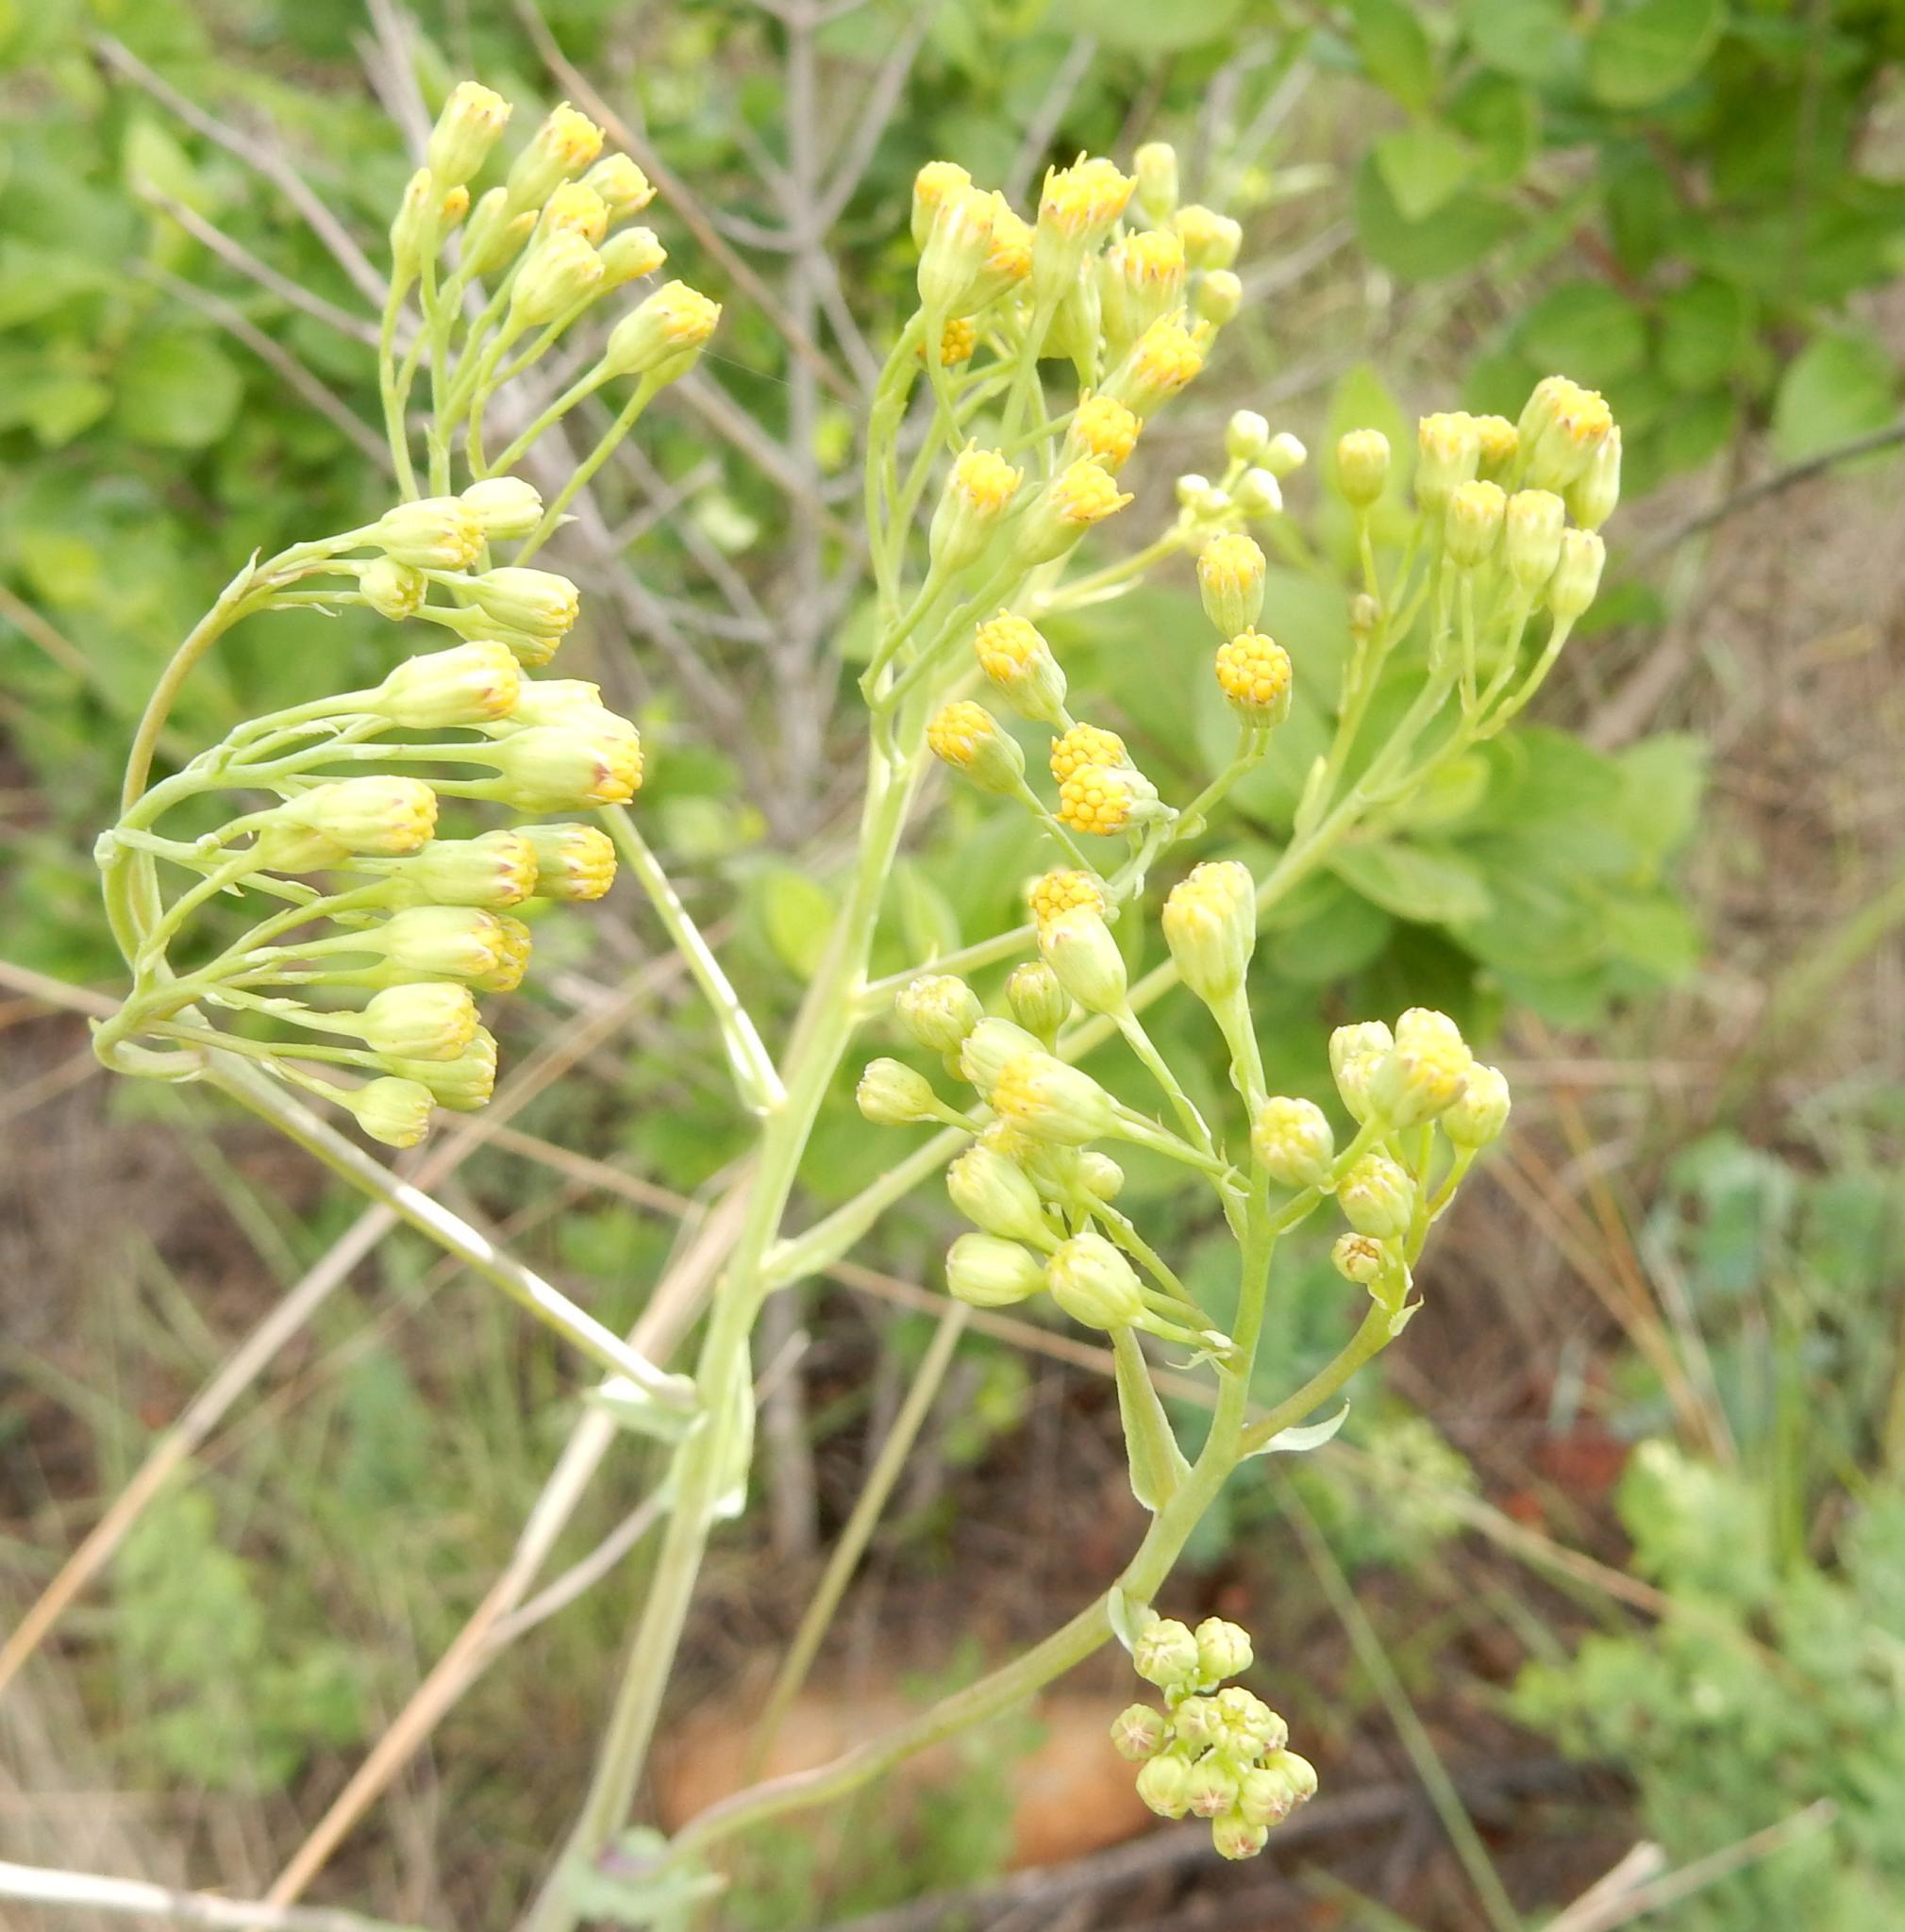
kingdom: Plantae
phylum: Tracheophyta
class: Magnoliopsida
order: Asterales
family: Asteraceae
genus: Senecio
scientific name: Senecio venosus
